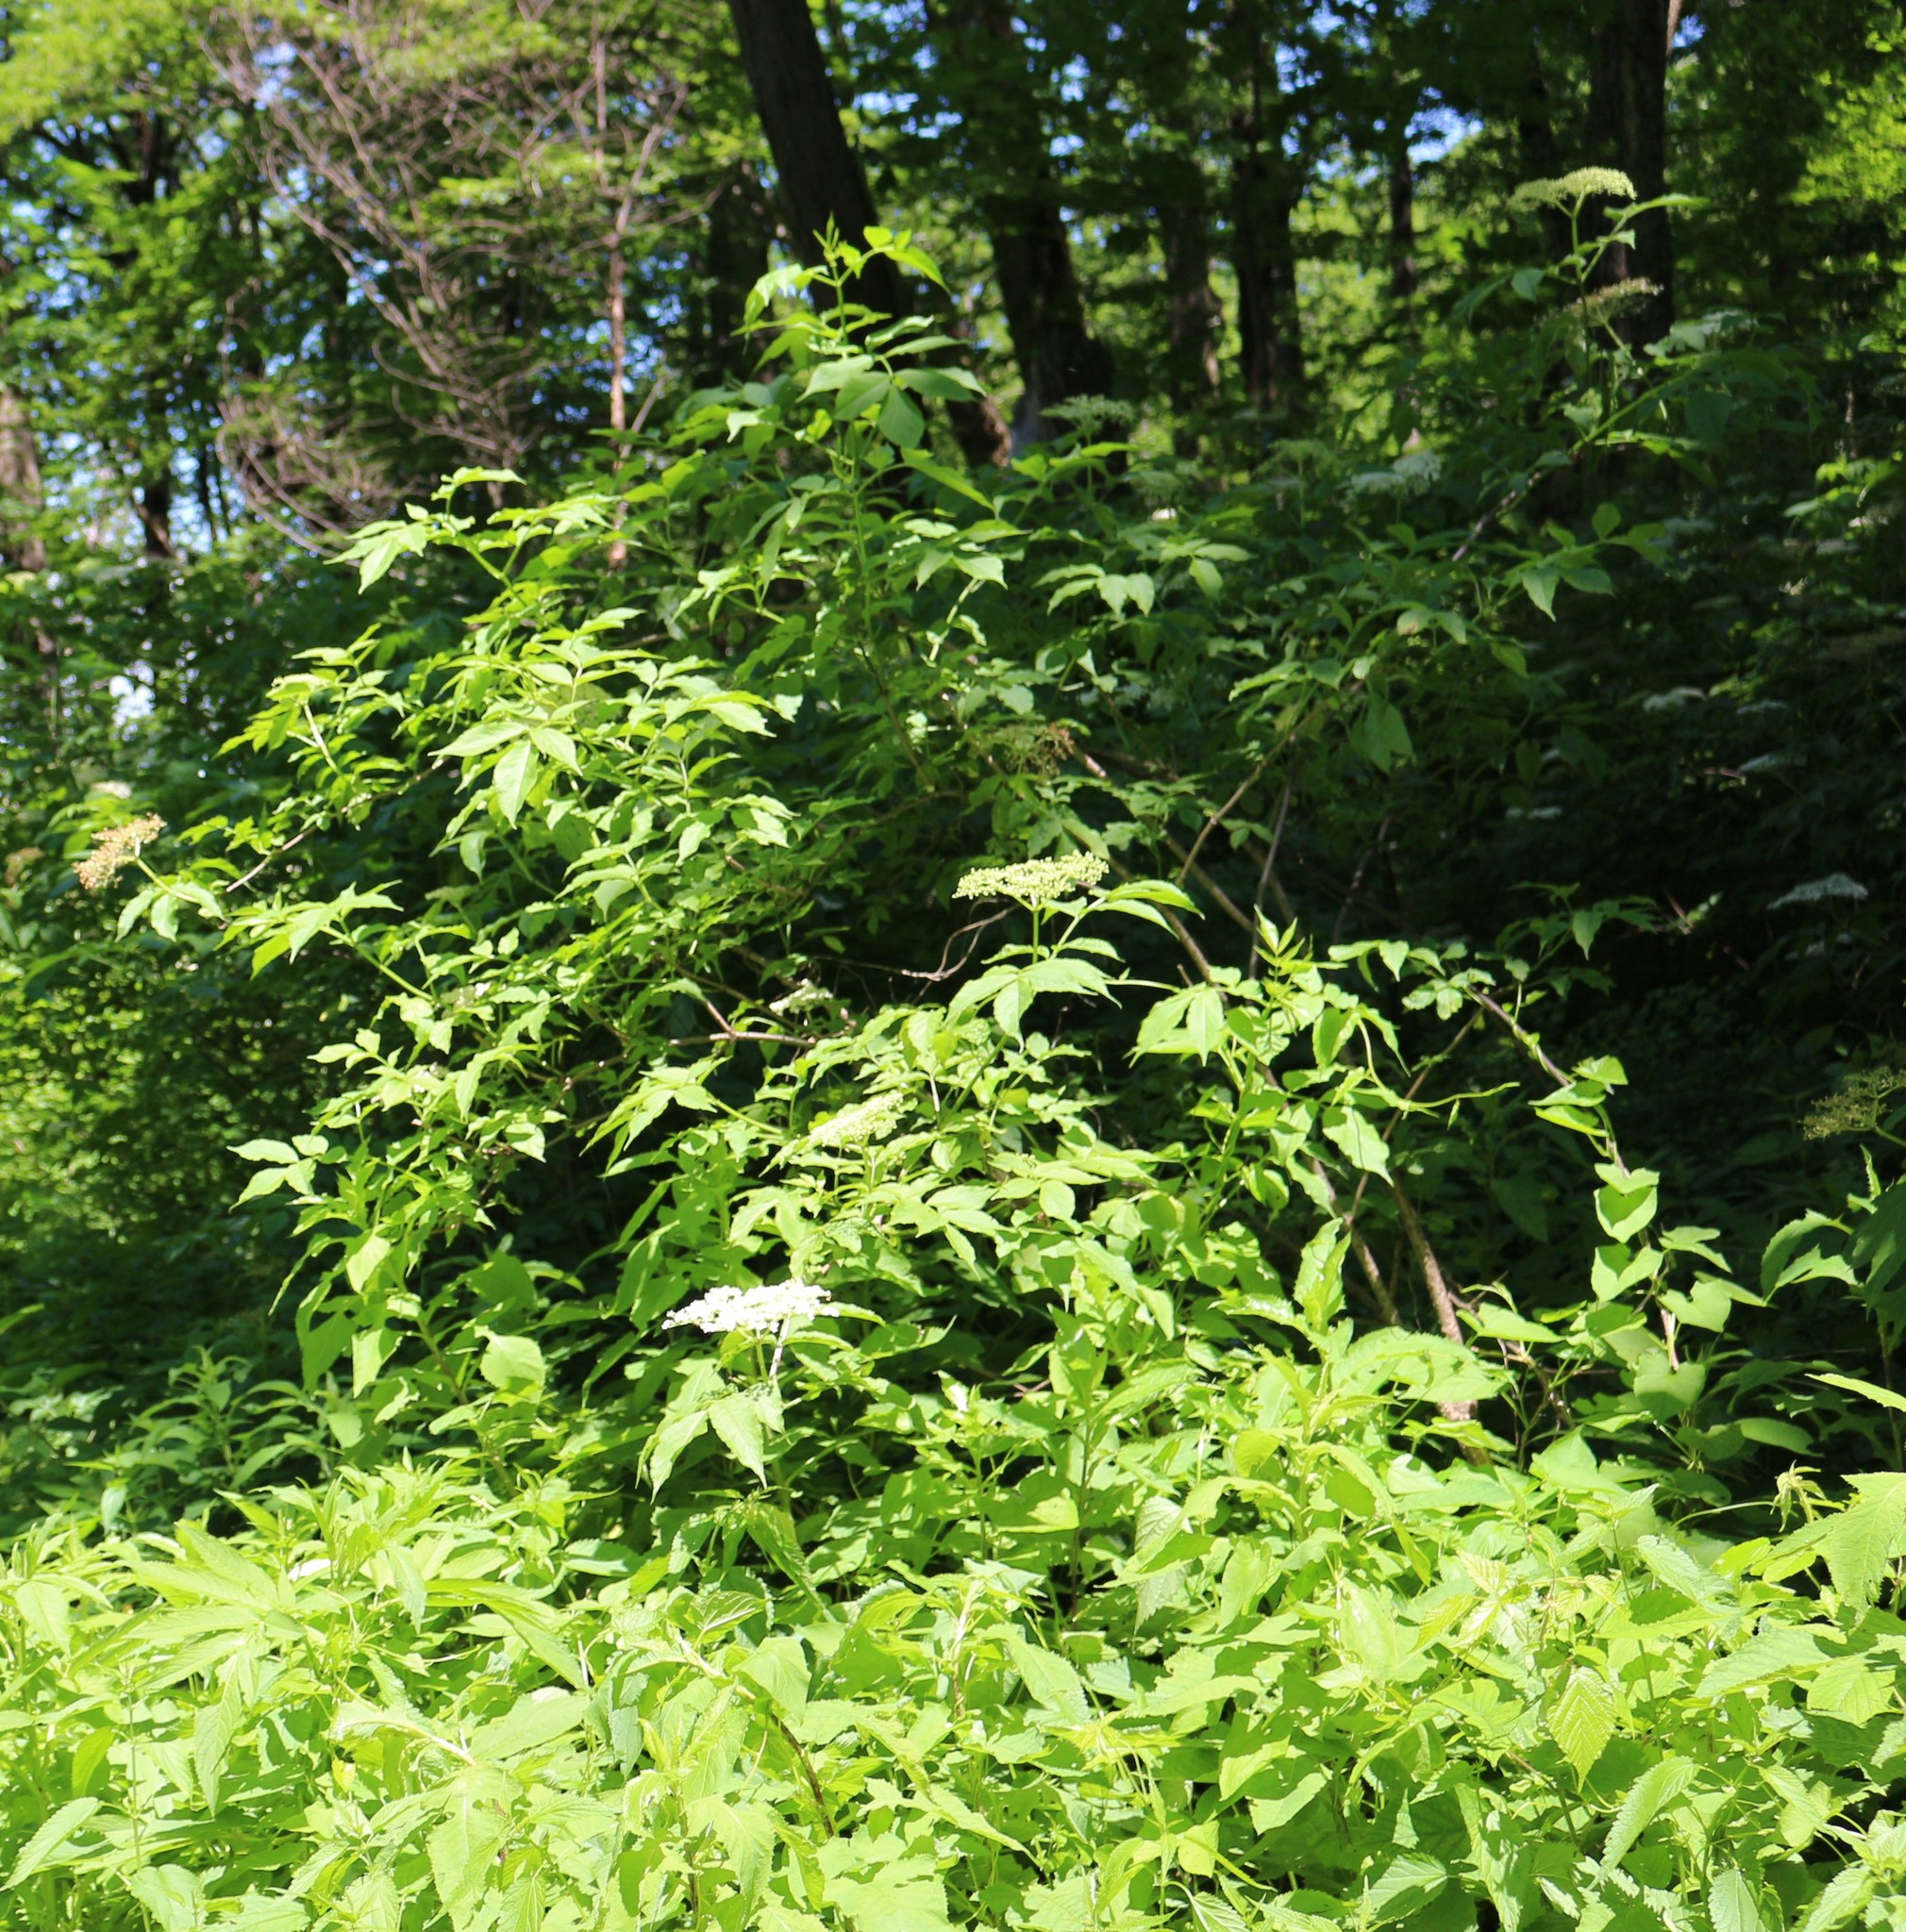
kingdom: Plantae
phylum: Tracheophyta
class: Magnoliopsida
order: Dipsacales
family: Viburnaceae
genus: Sambucus
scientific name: Sambucus nigra
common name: Elder
